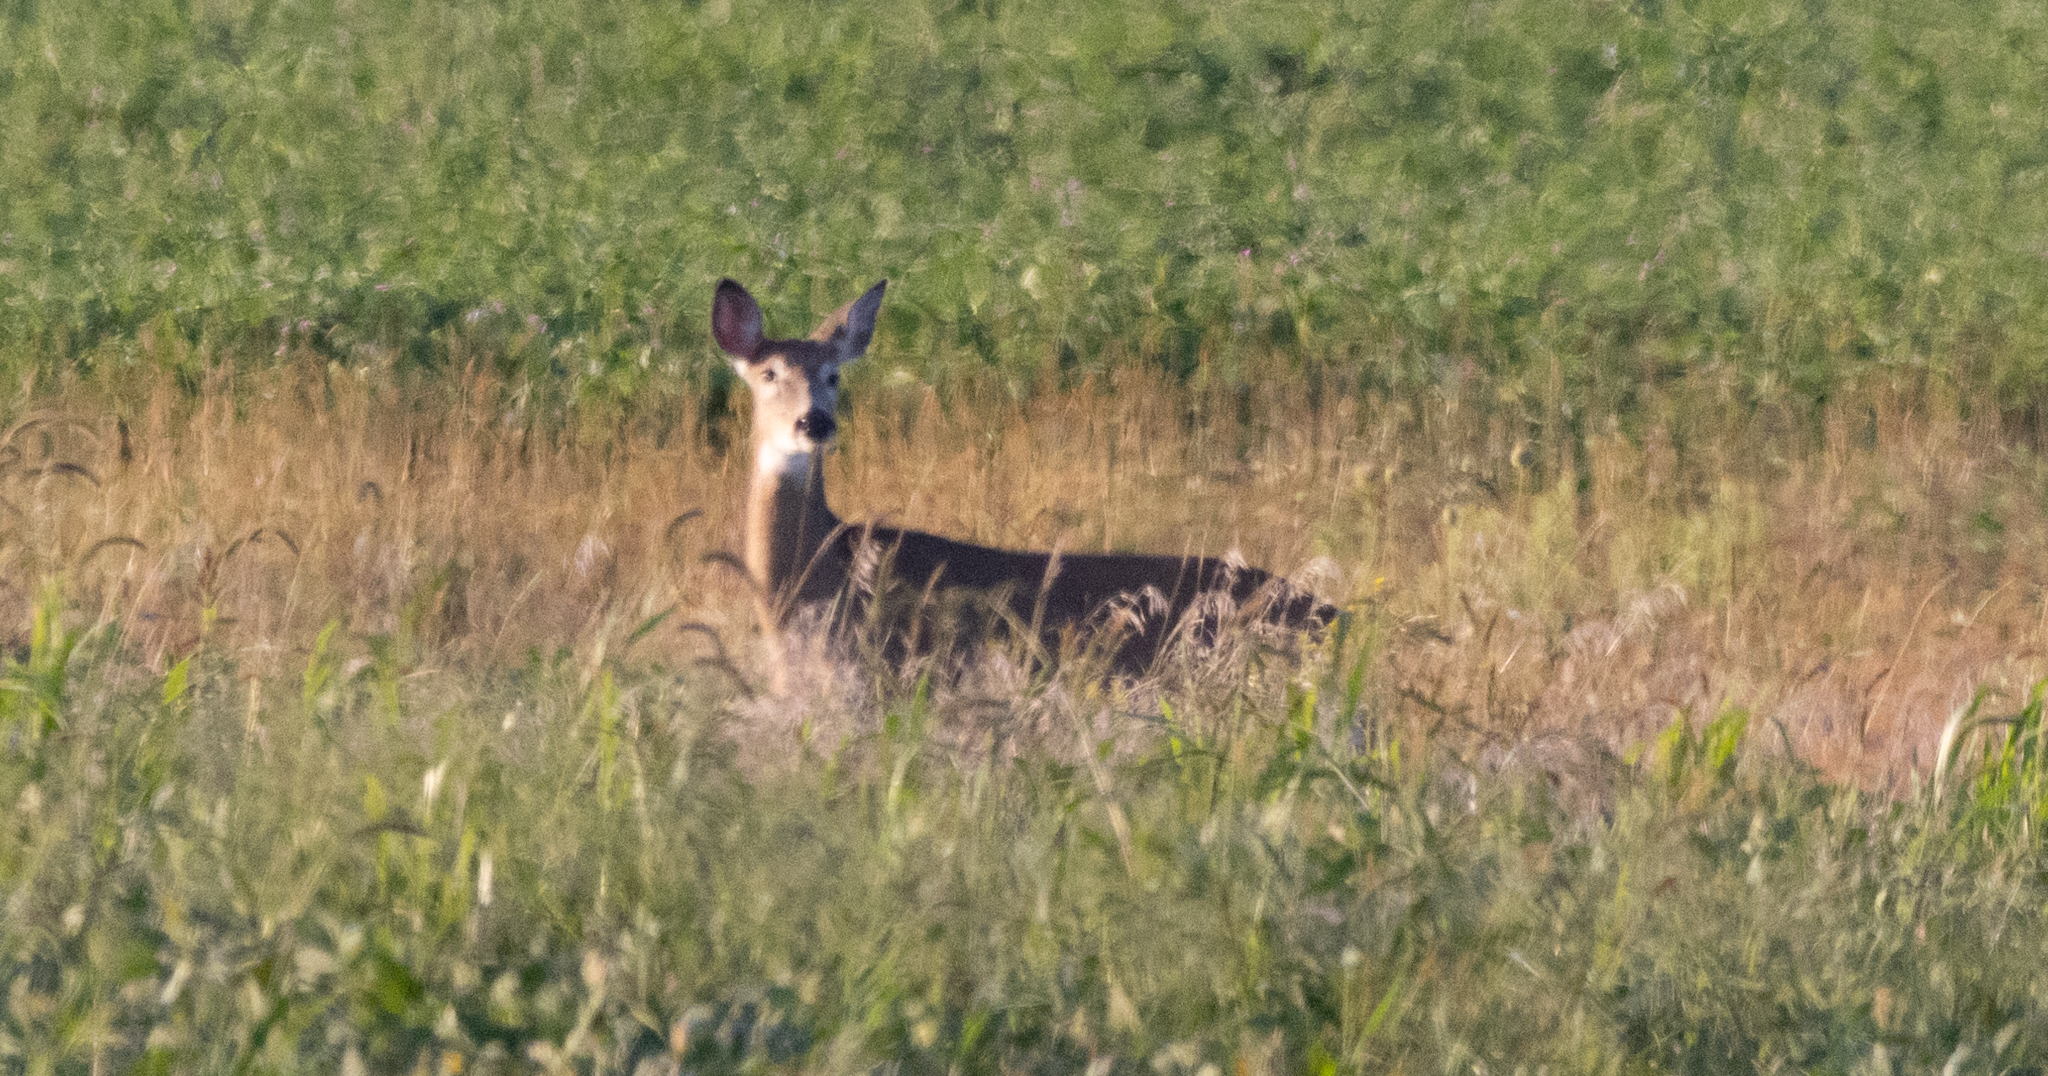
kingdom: Animalia
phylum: Chordata
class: Mammalia
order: Artiodactyla
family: Cervidae
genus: Odocoileus
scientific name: Odocoileus virginianus
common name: White-tailed deer
